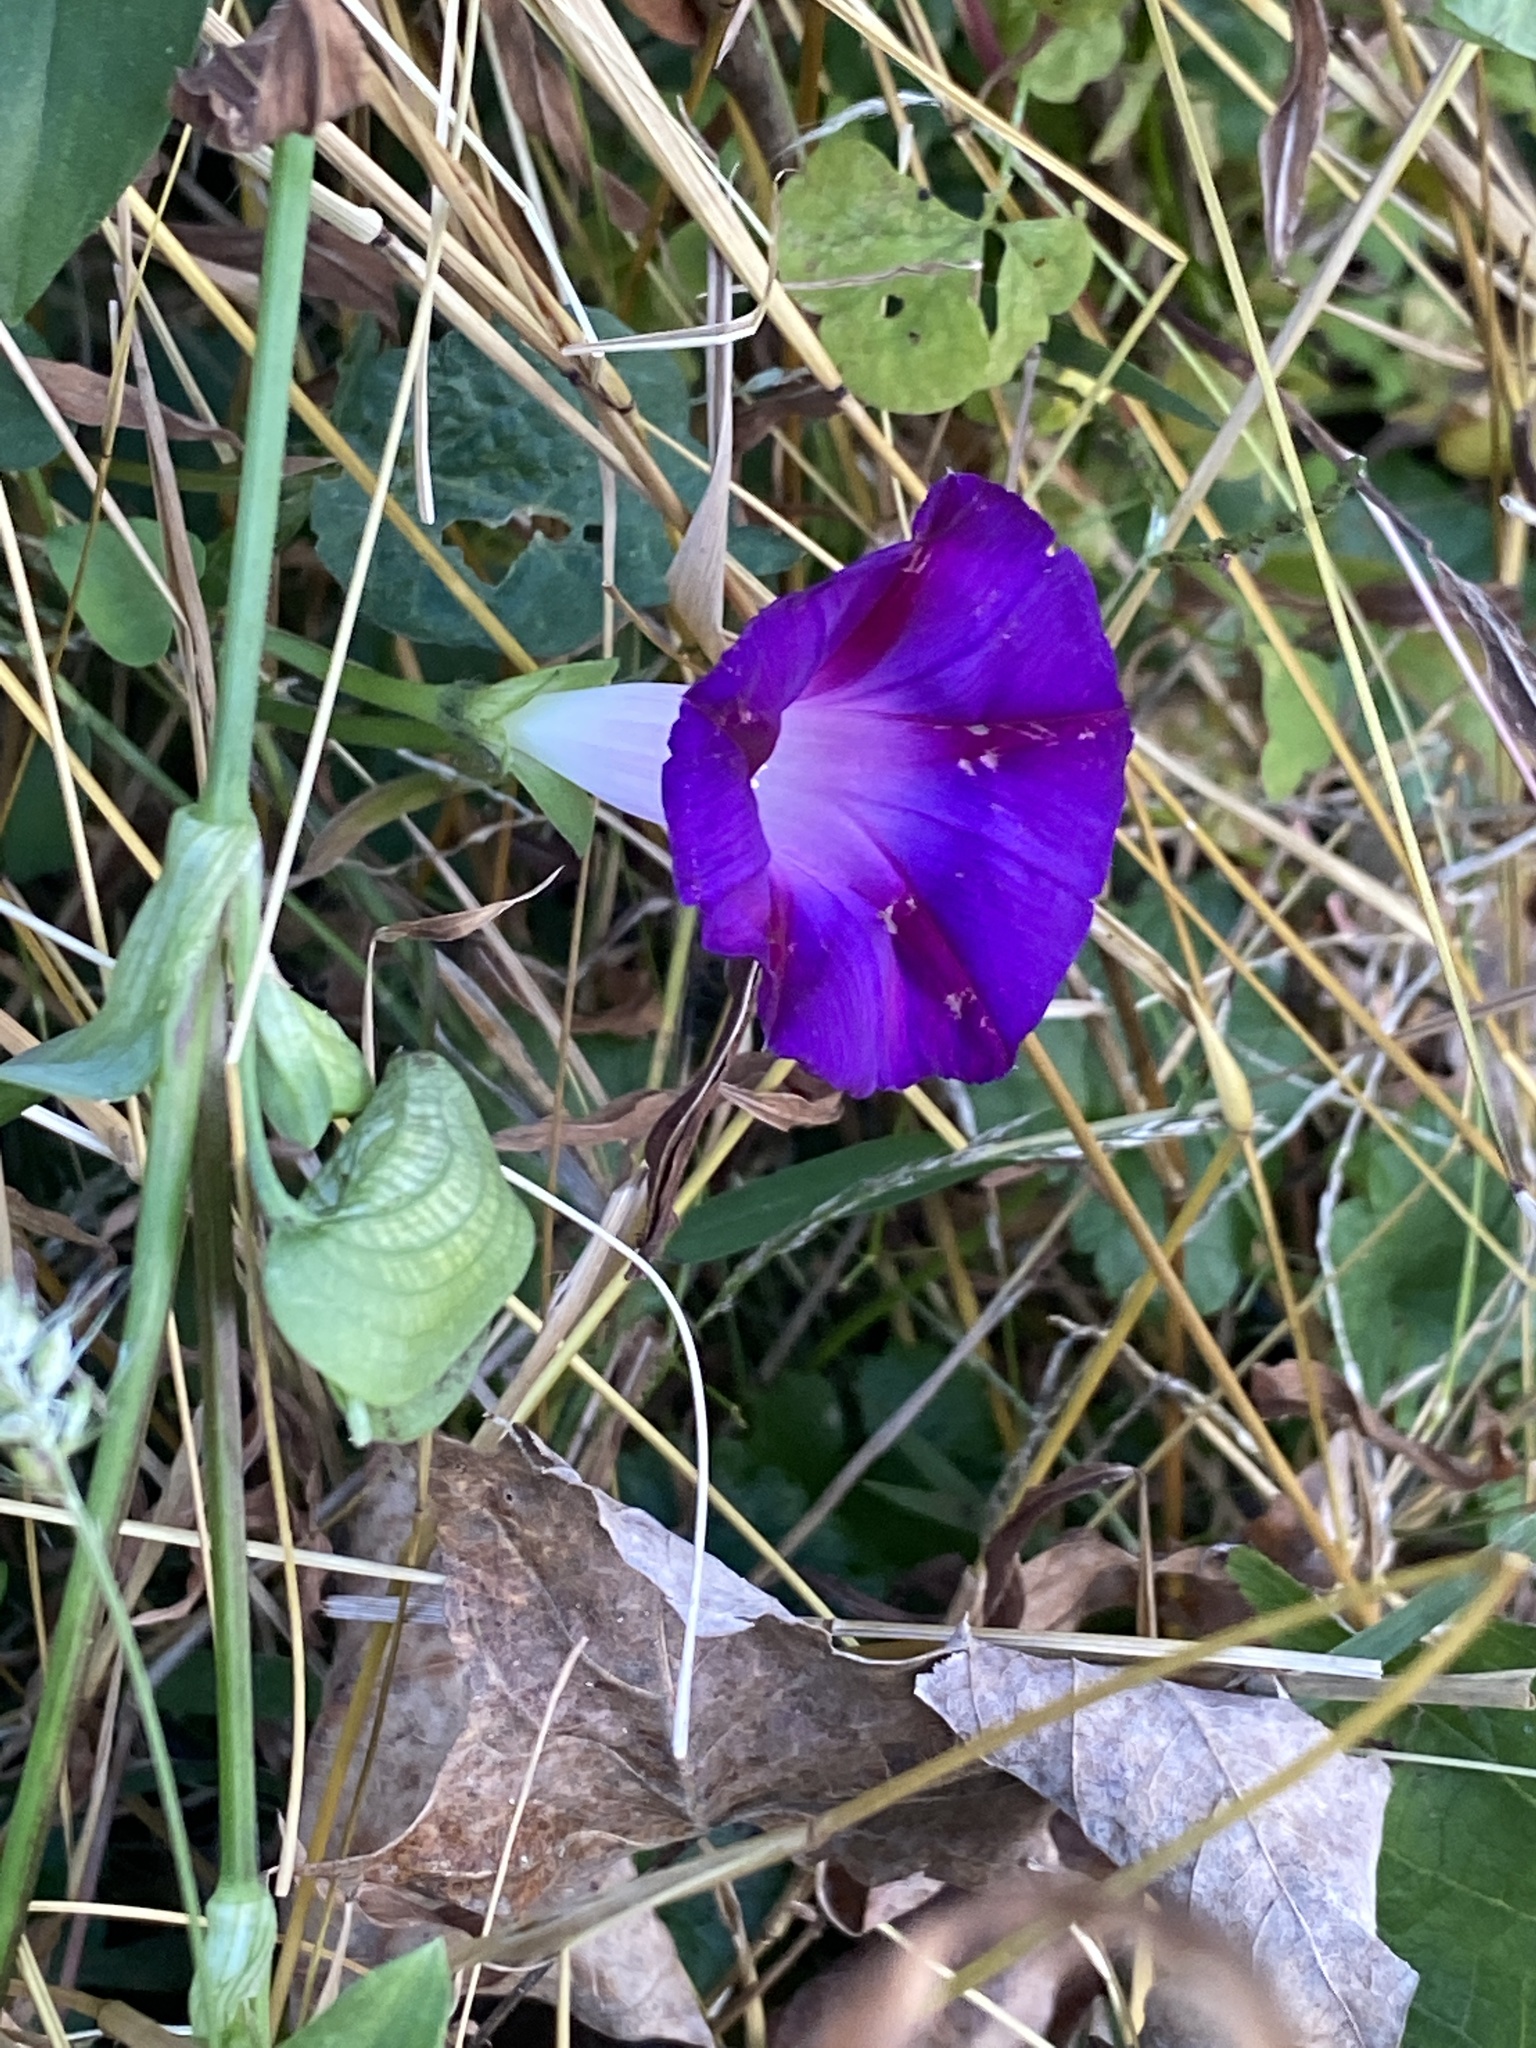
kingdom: Plantae
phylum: Tracheophyta
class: Magnoliopsida
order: Solanales
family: Convolvulaceae
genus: Ipomoea
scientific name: Ipomoea purpurea
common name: Common morning-glory
